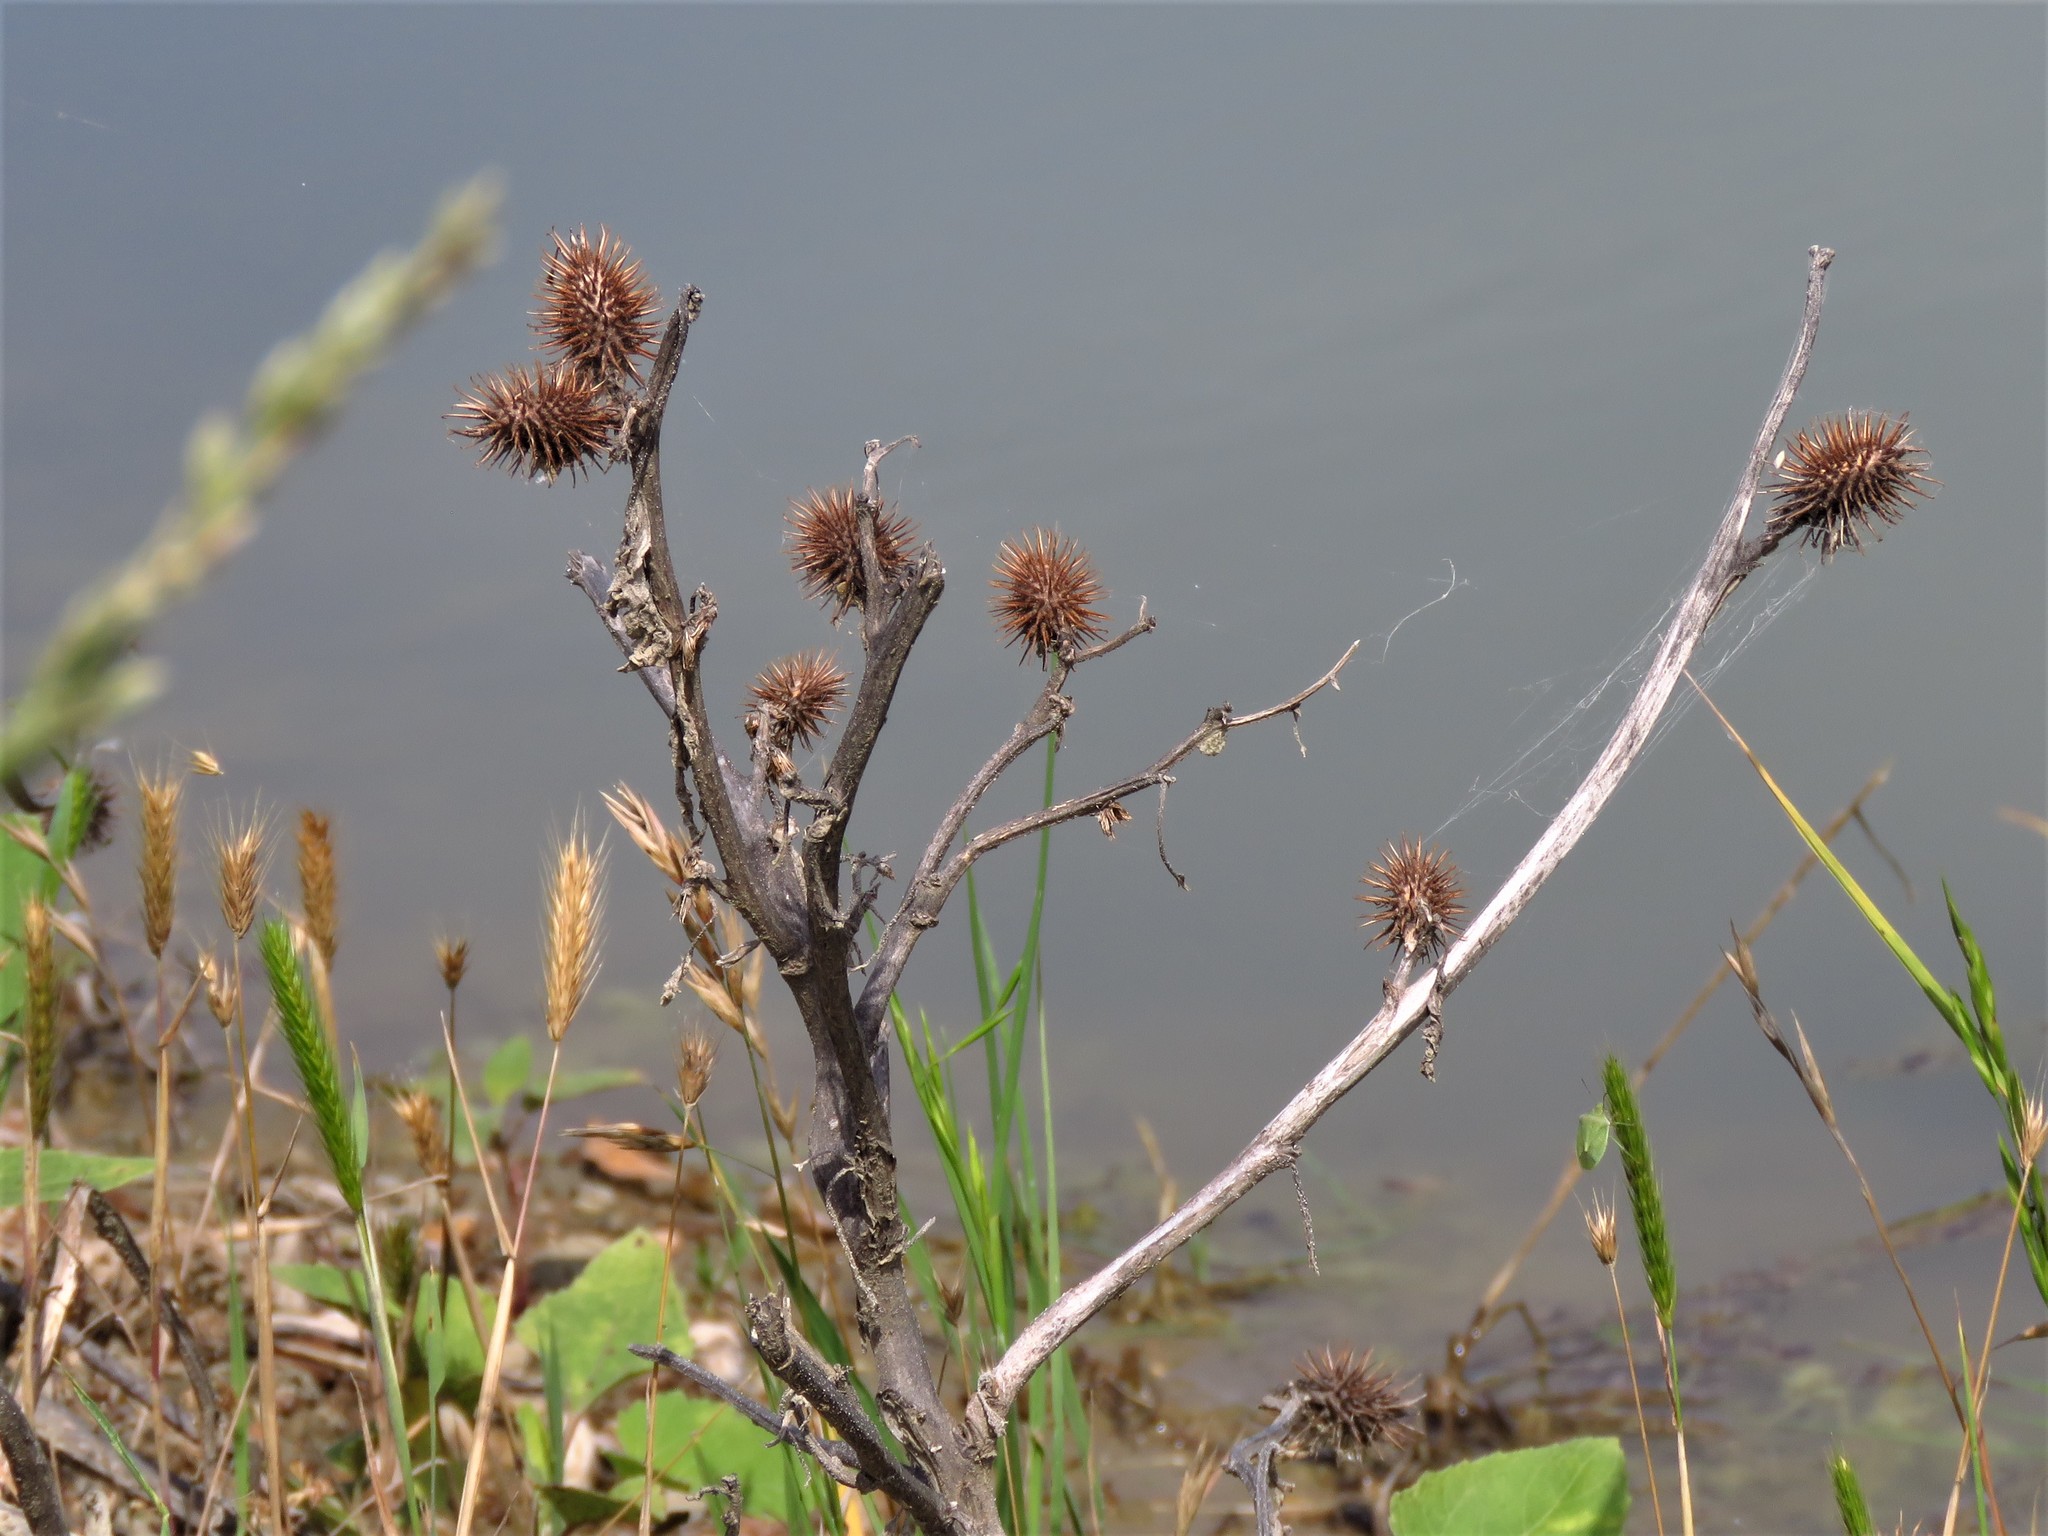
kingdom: Plantae
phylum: Tracheophyta
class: Magnoliopsida
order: Asterales
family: Asteraceae
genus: Xanthium
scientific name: Xanthium strumarium
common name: Rough cocklebur
